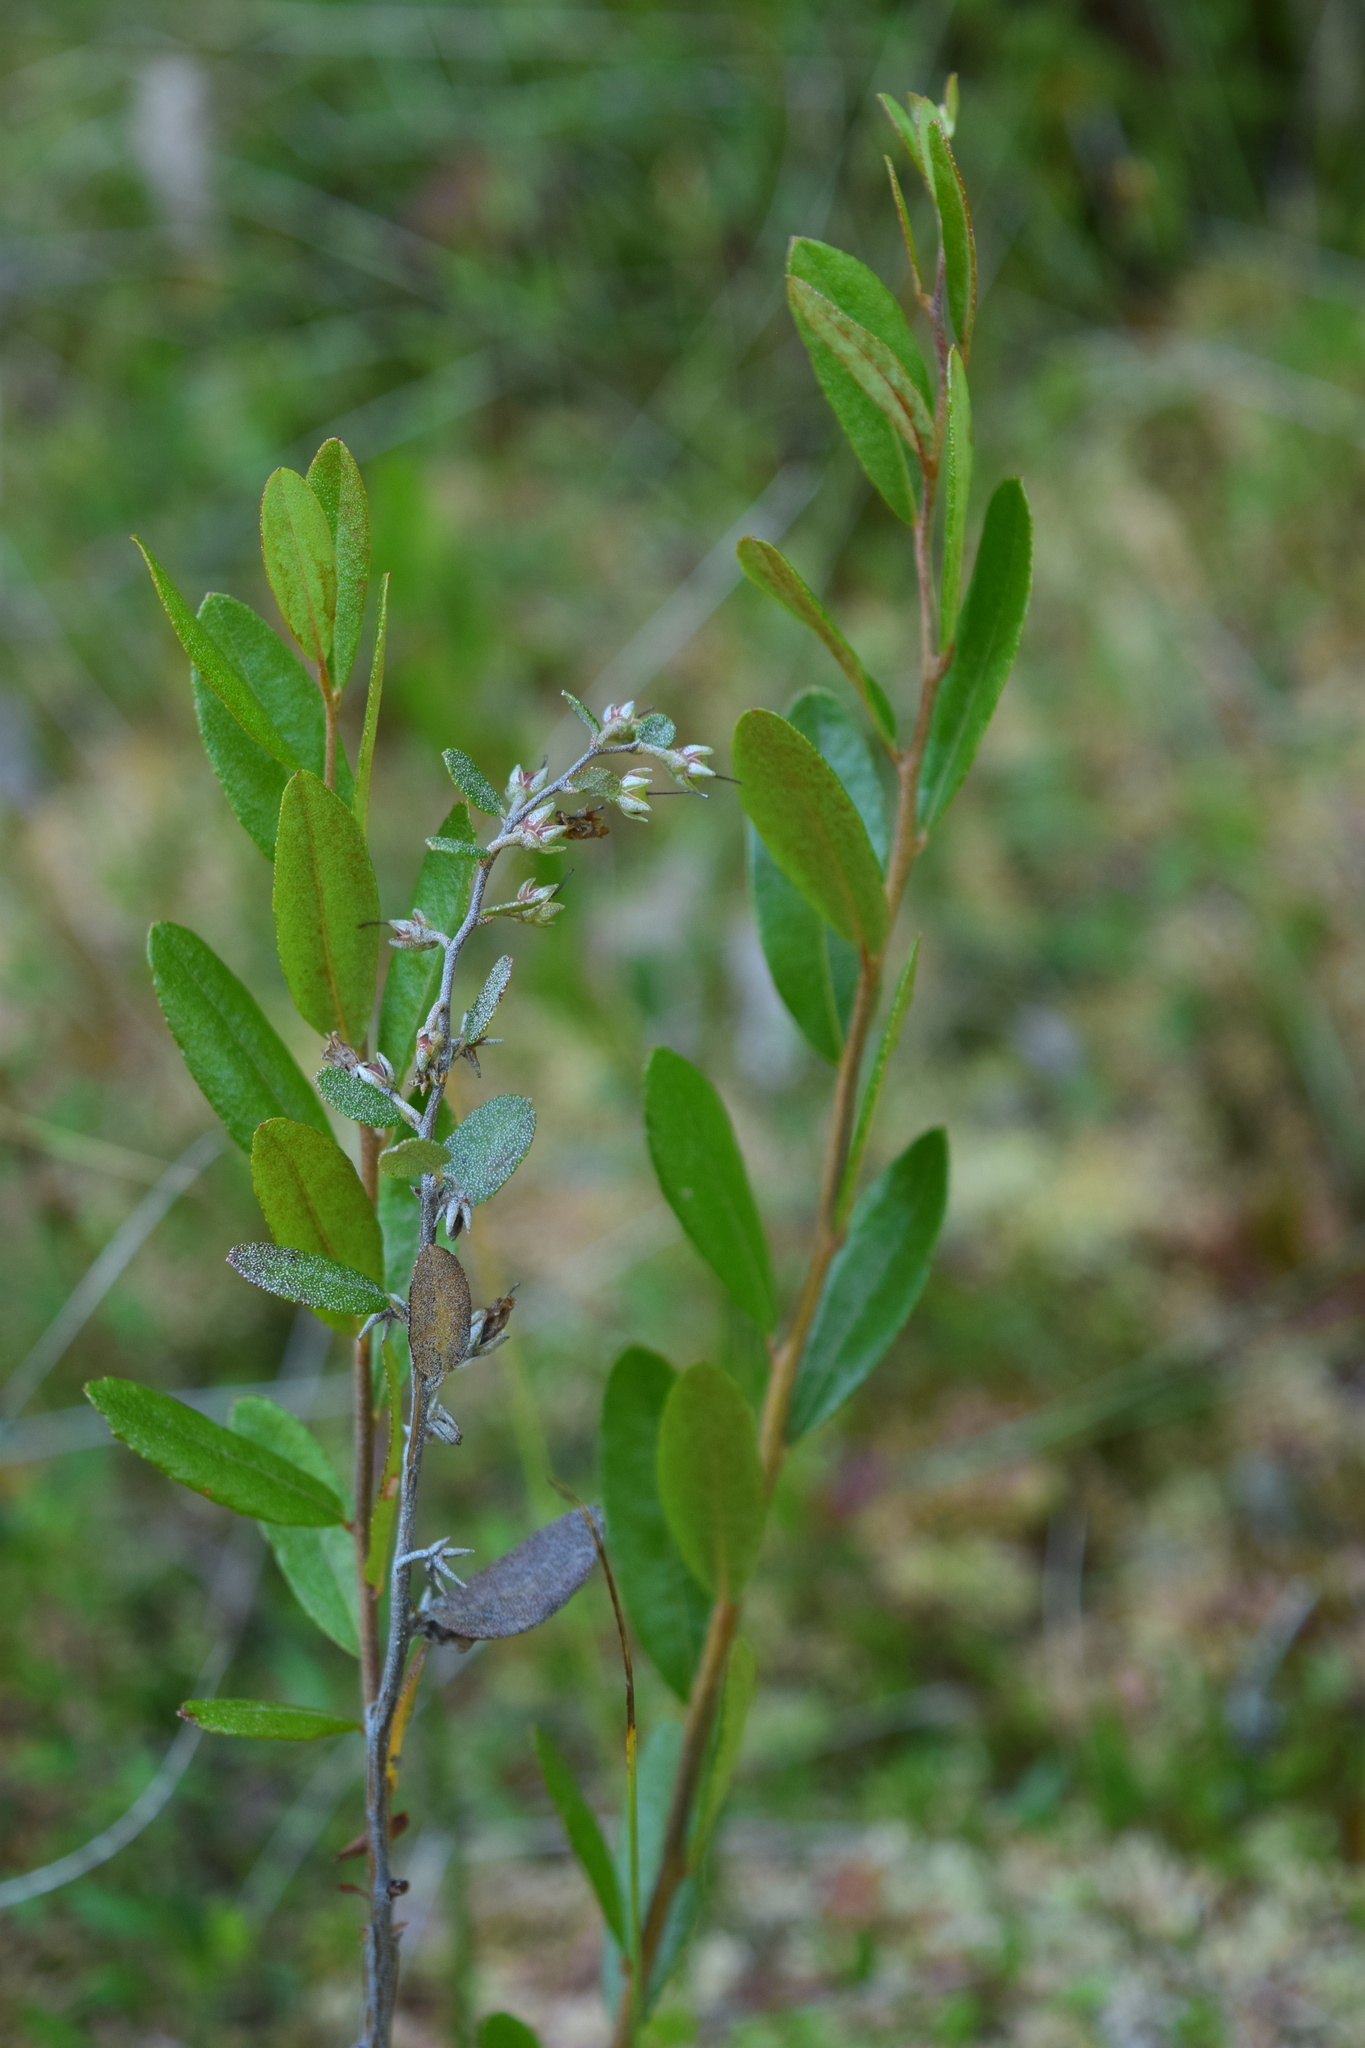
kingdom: Plantae
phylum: Tracheophyta
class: Magnoliopsida
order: Ericales
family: Ericaceae
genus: Chamaedaphne
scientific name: Chamaedaphne calyculata
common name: Leatherleaf
